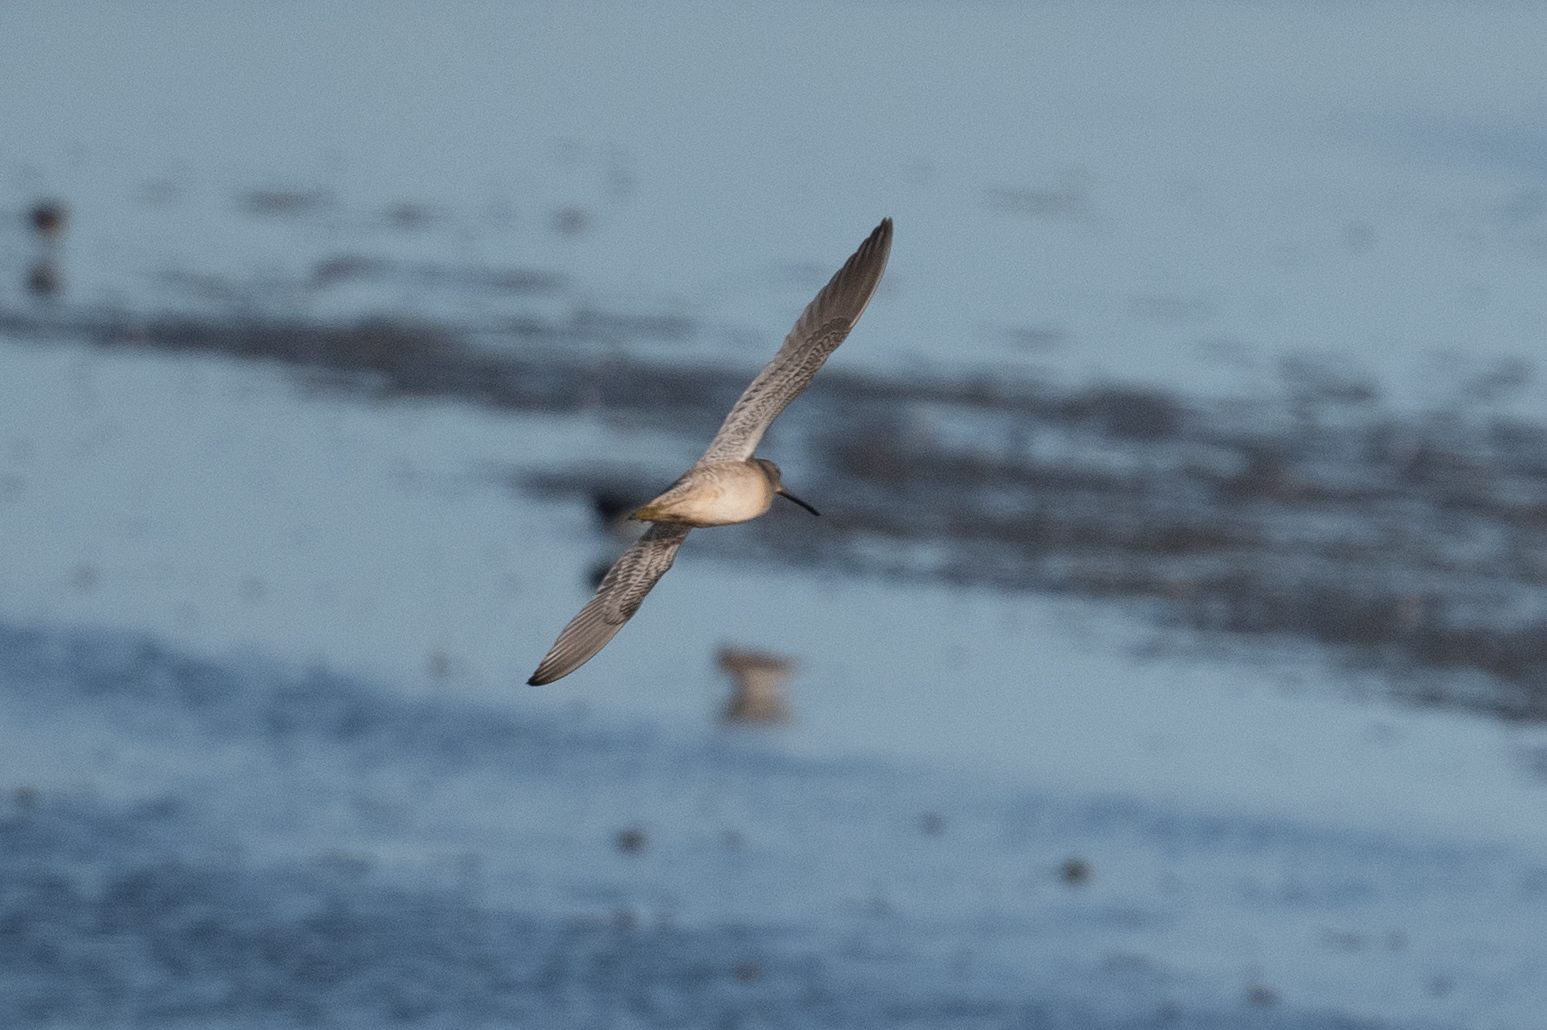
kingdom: Animalia
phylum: Chordata
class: Aves
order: Charadriiformes
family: Scolopacidae
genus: Limnodromus
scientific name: Limnodromus scolopaceus
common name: Long-billed dowitcher
